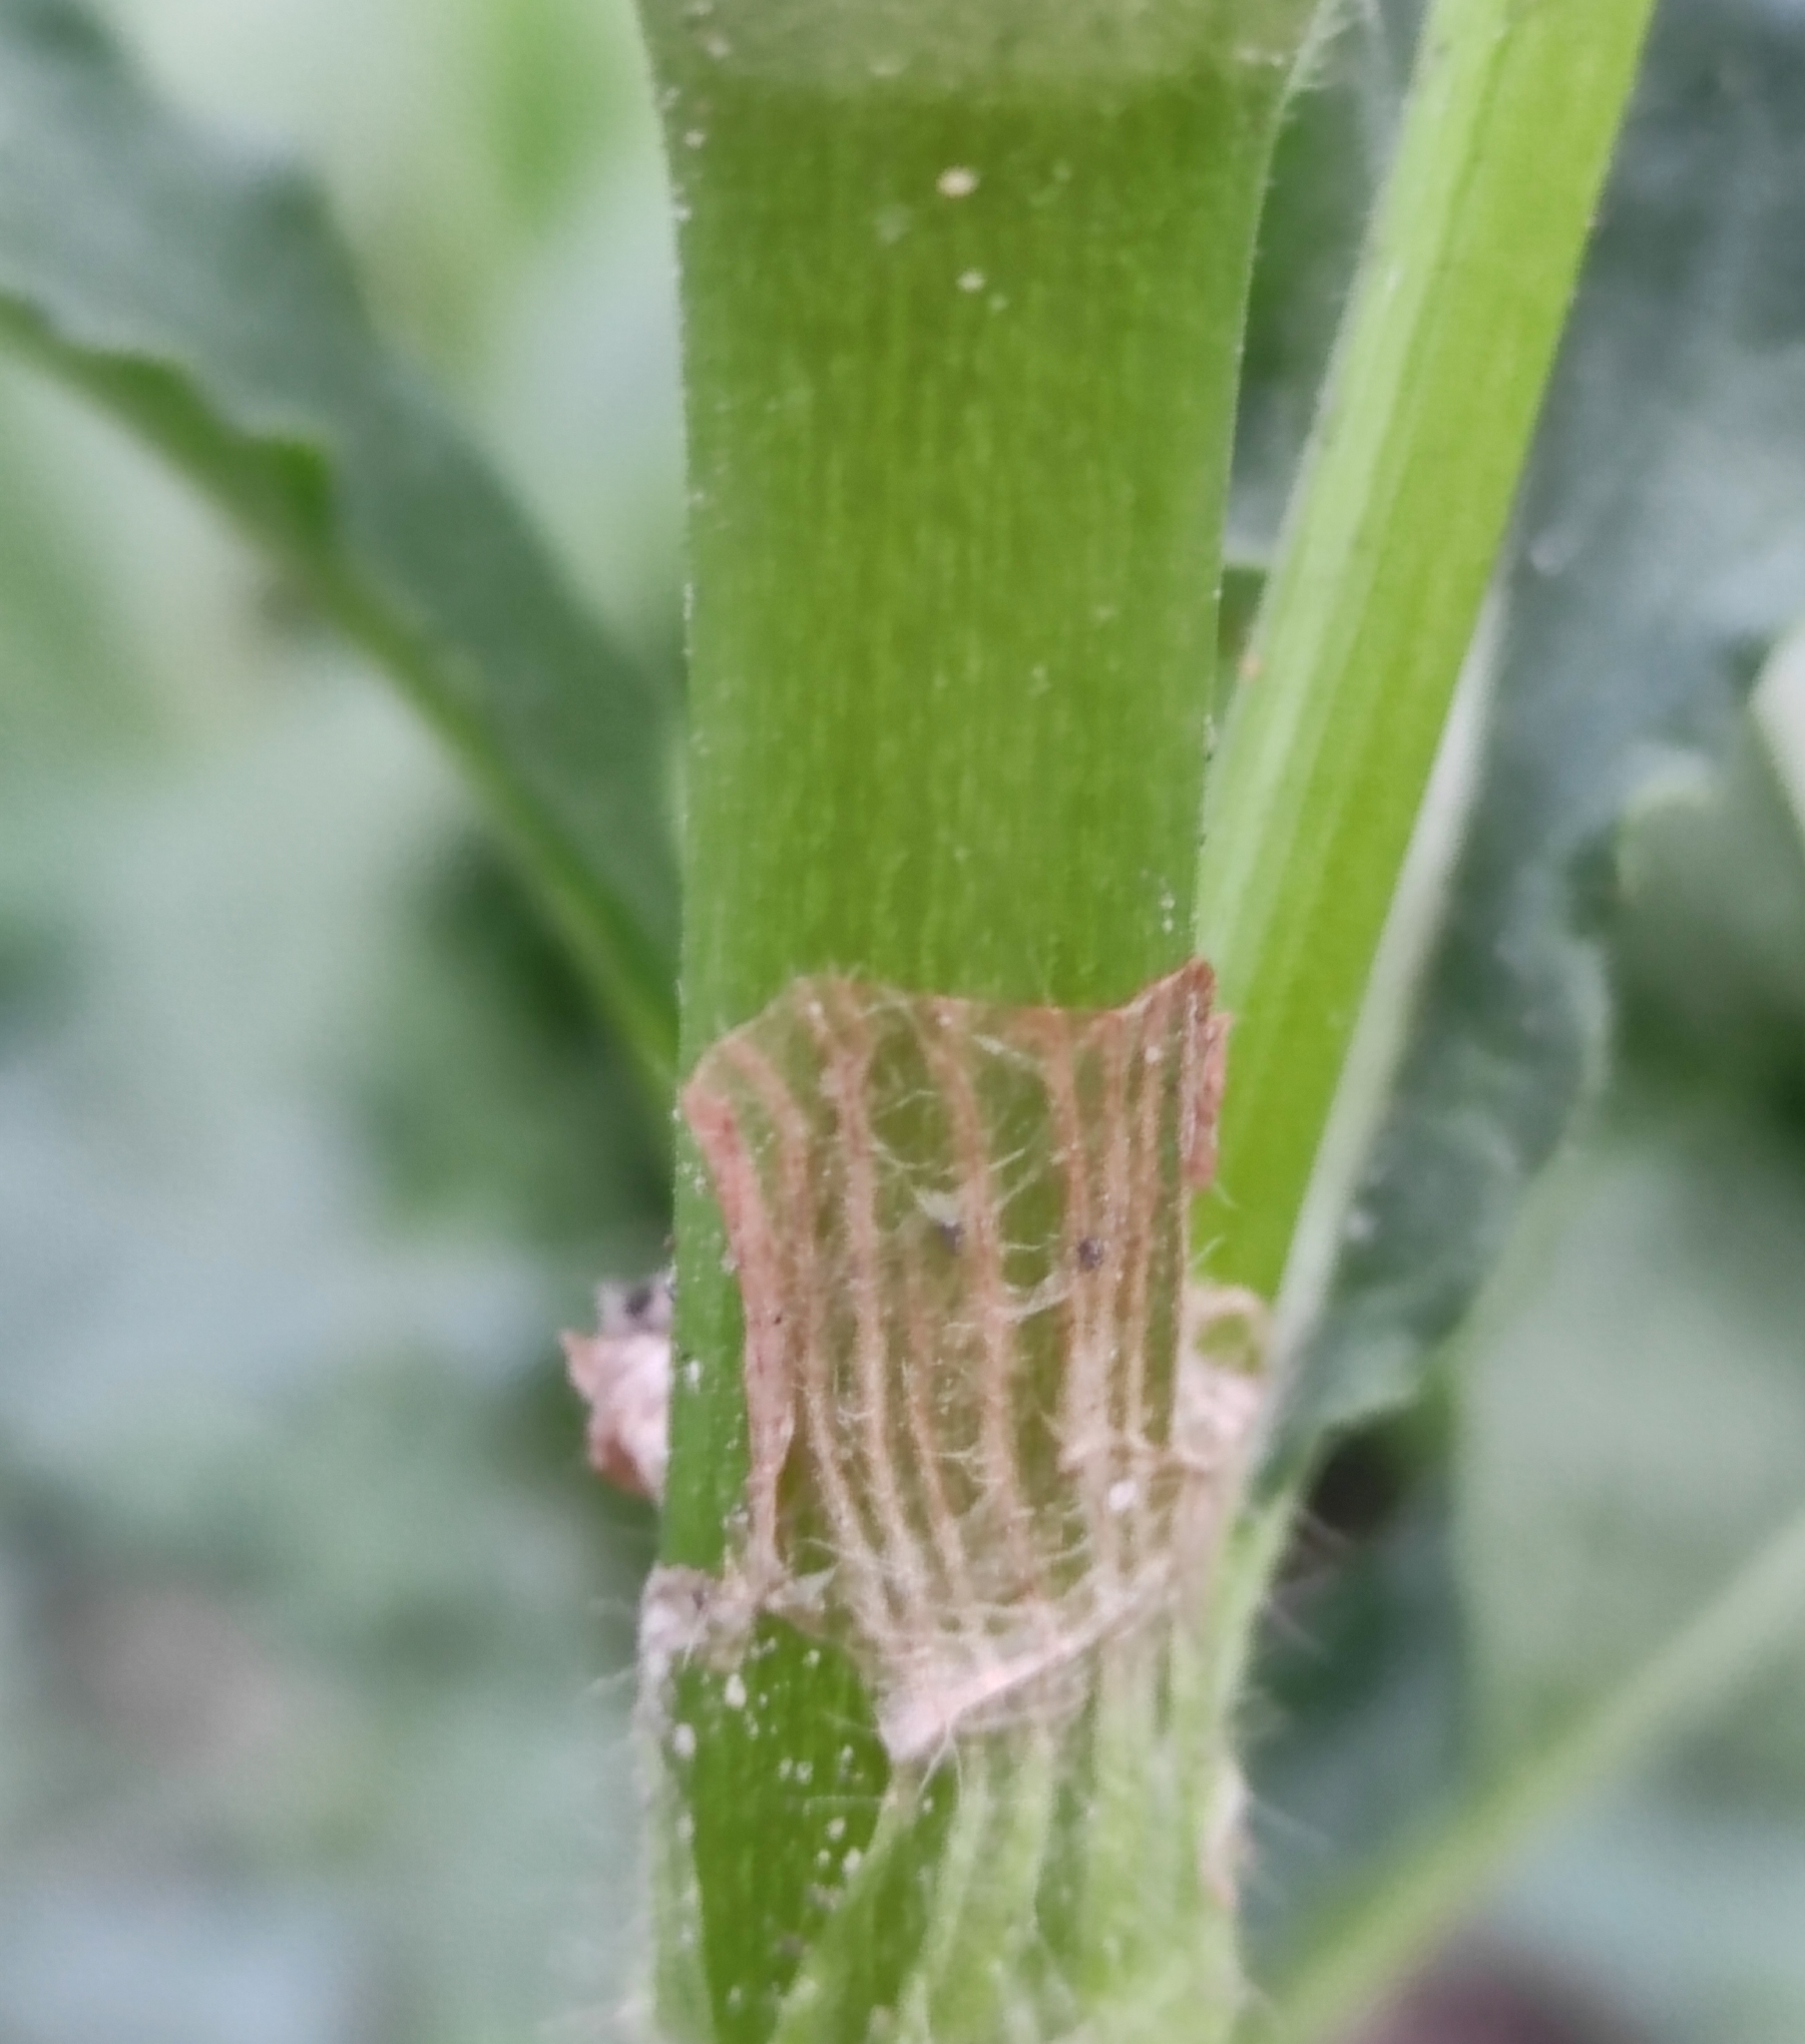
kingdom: Plantae
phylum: Tracheophyta
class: Magnoliopsida
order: Caryophyllales
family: Polygonaceae
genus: Koenigia
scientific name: Koenigia alpina
